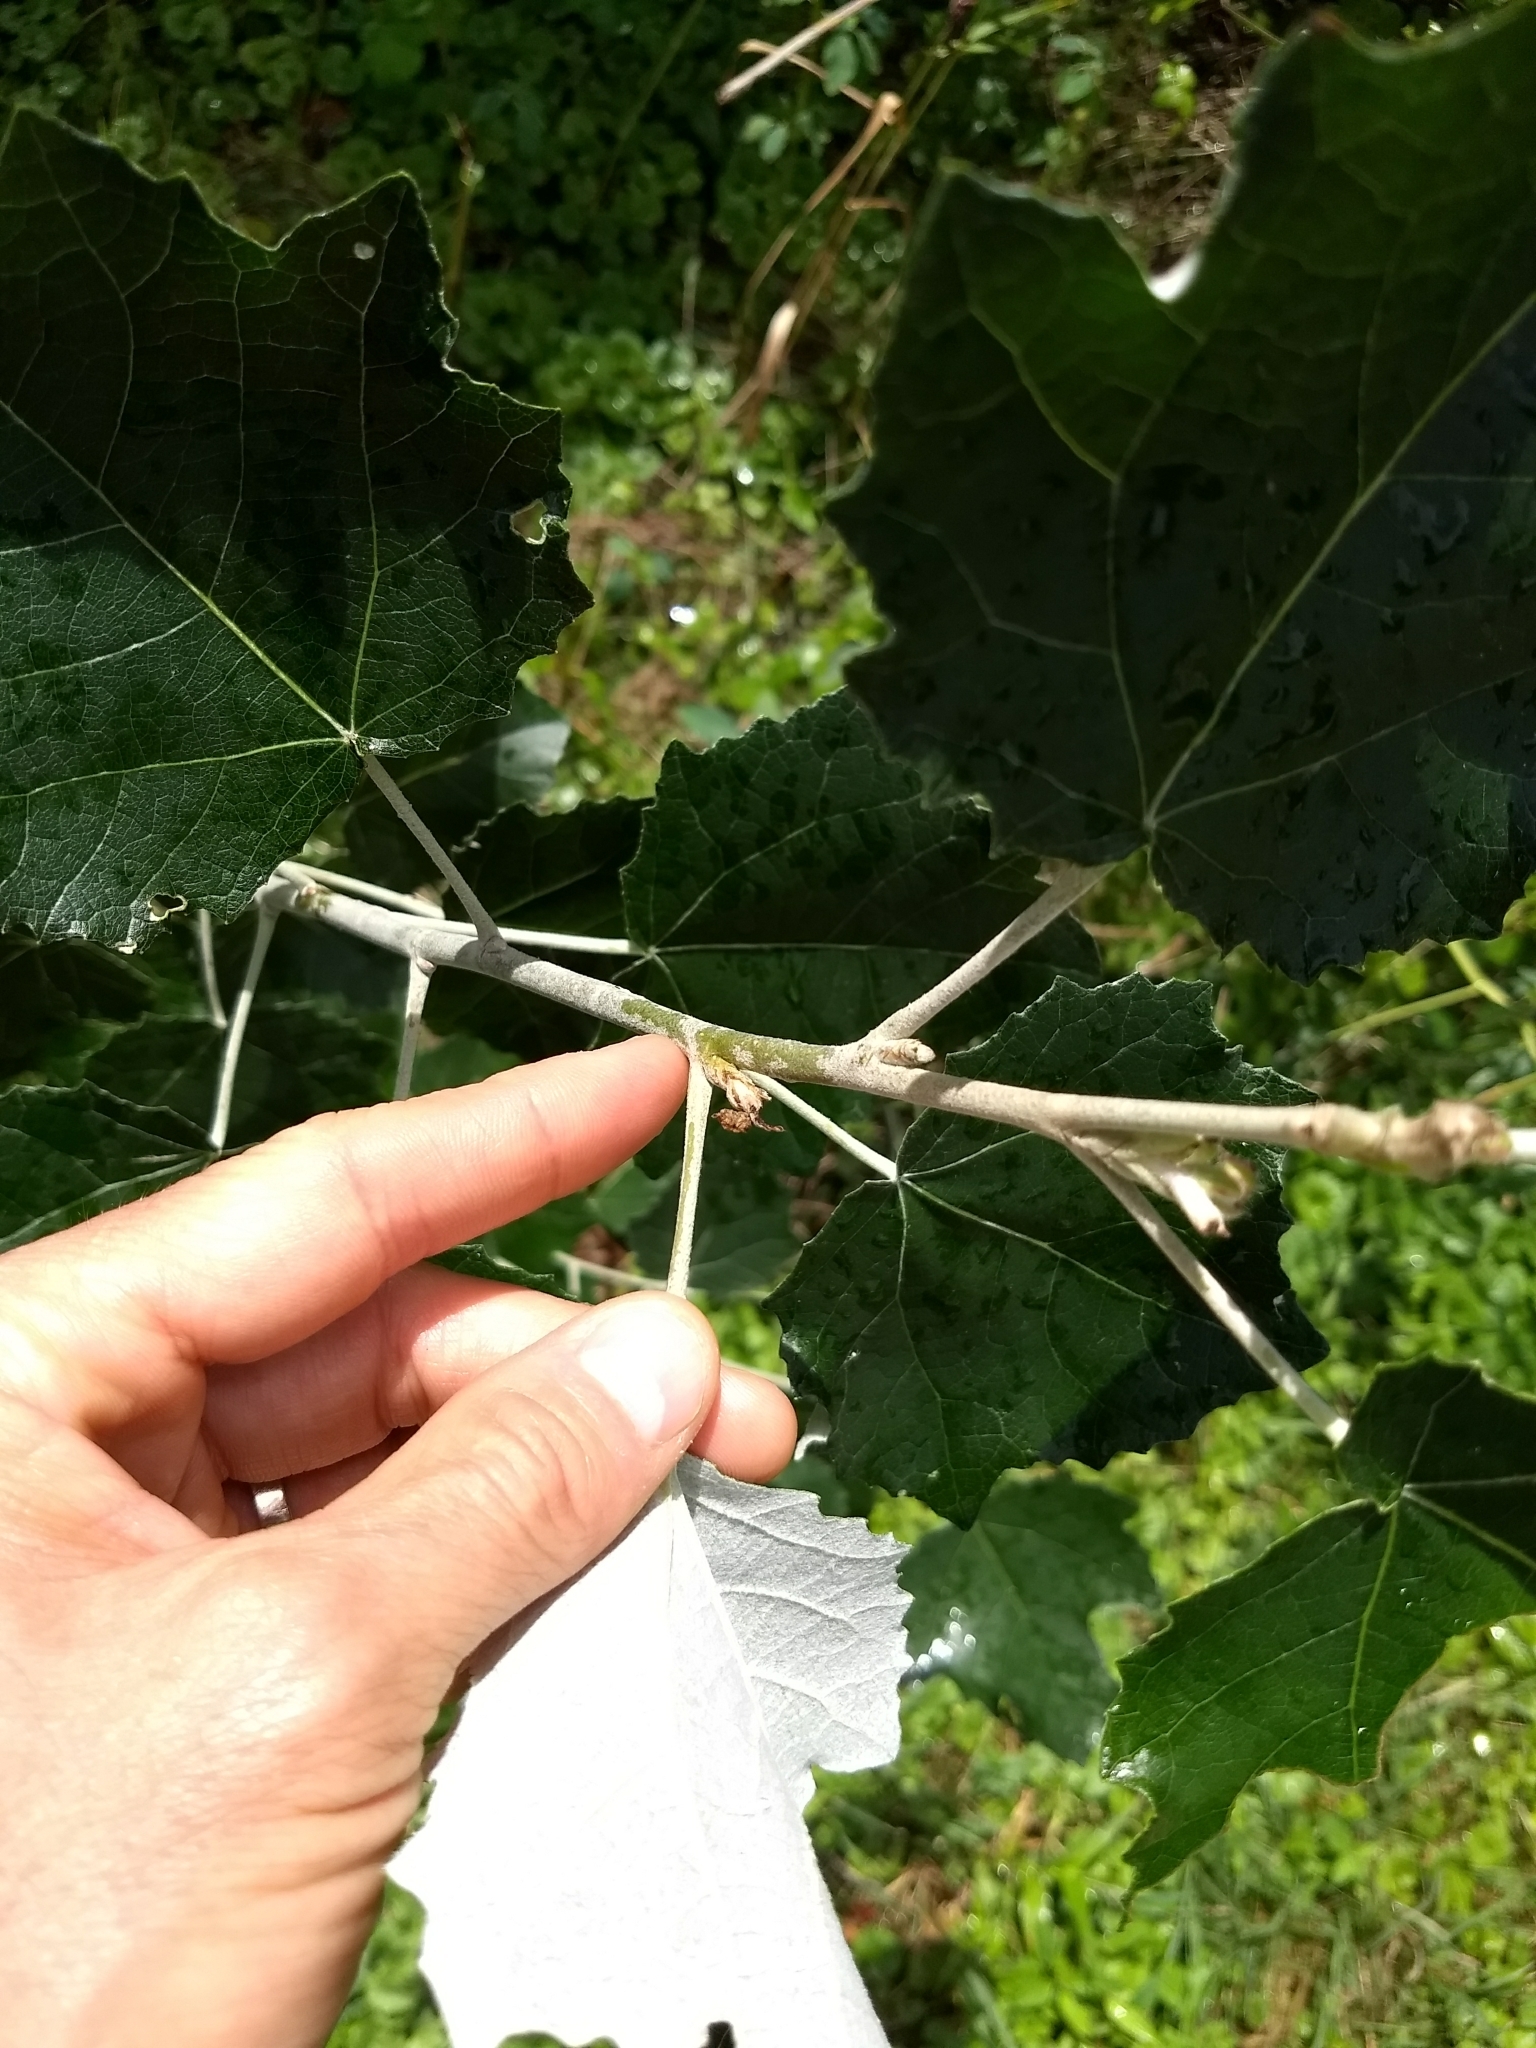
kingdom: Plantae
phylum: Tracheophyta
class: Magnoliopsida
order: Malpighiales
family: Salicaceae
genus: Populus
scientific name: Populus alba
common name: White poplar
